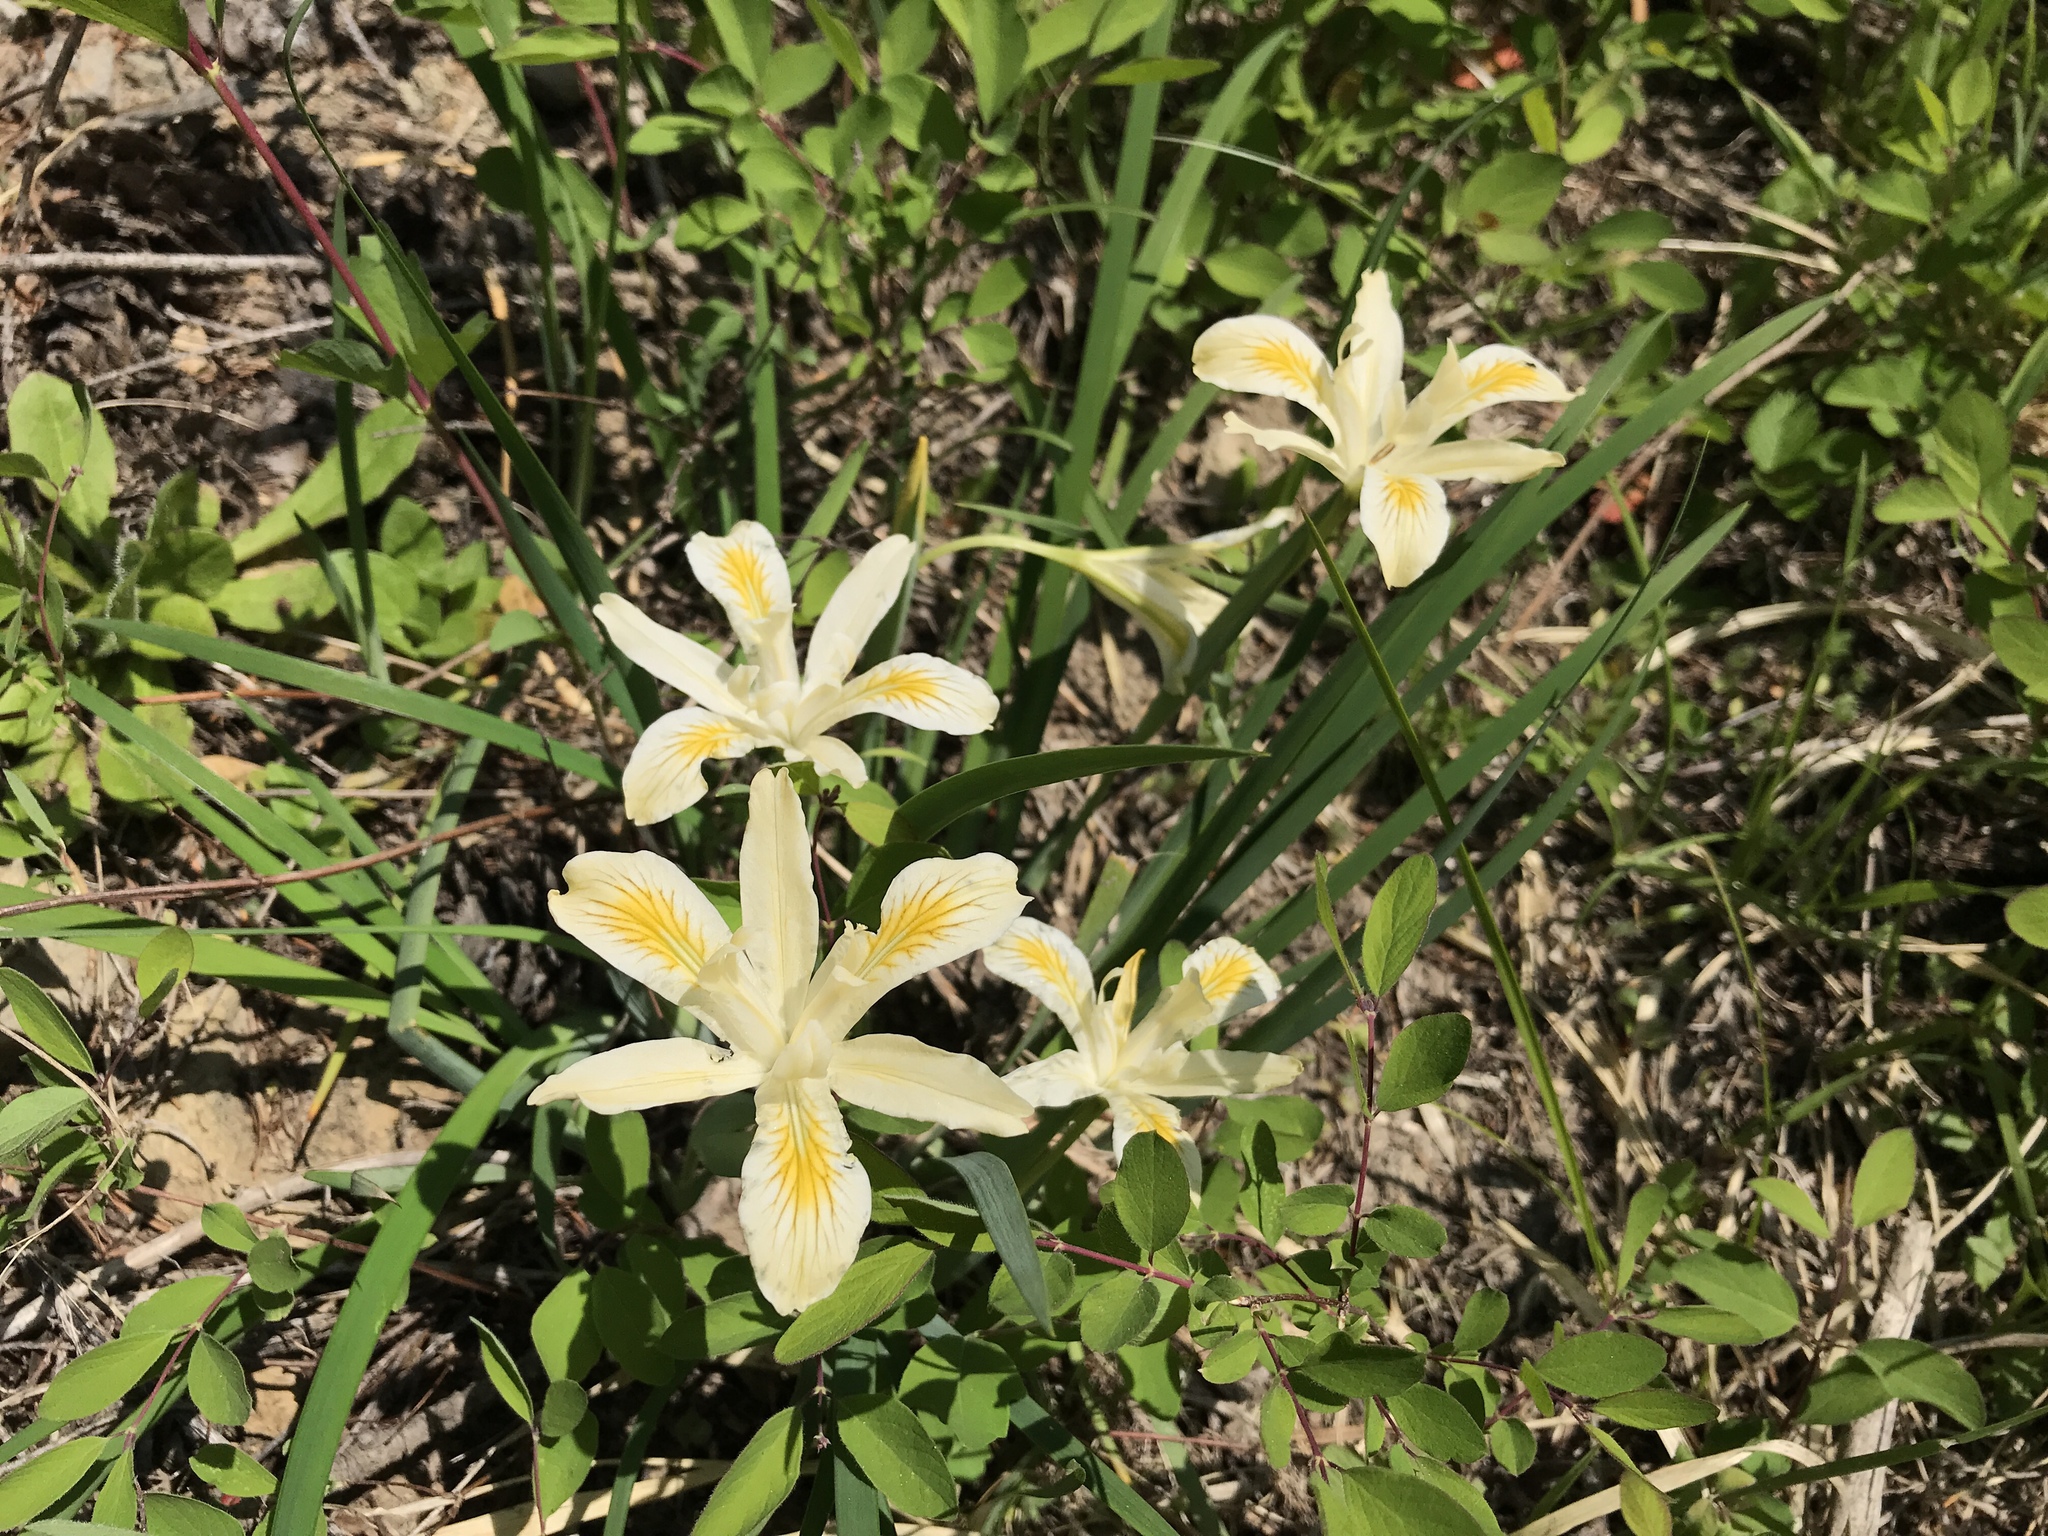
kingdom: Plantae
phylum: Tracheophyta
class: Liliopsida
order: Asparagales
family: Iridaceae
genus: Iris
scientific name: Iris chrysophylla
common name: Yellow-leaf iris
